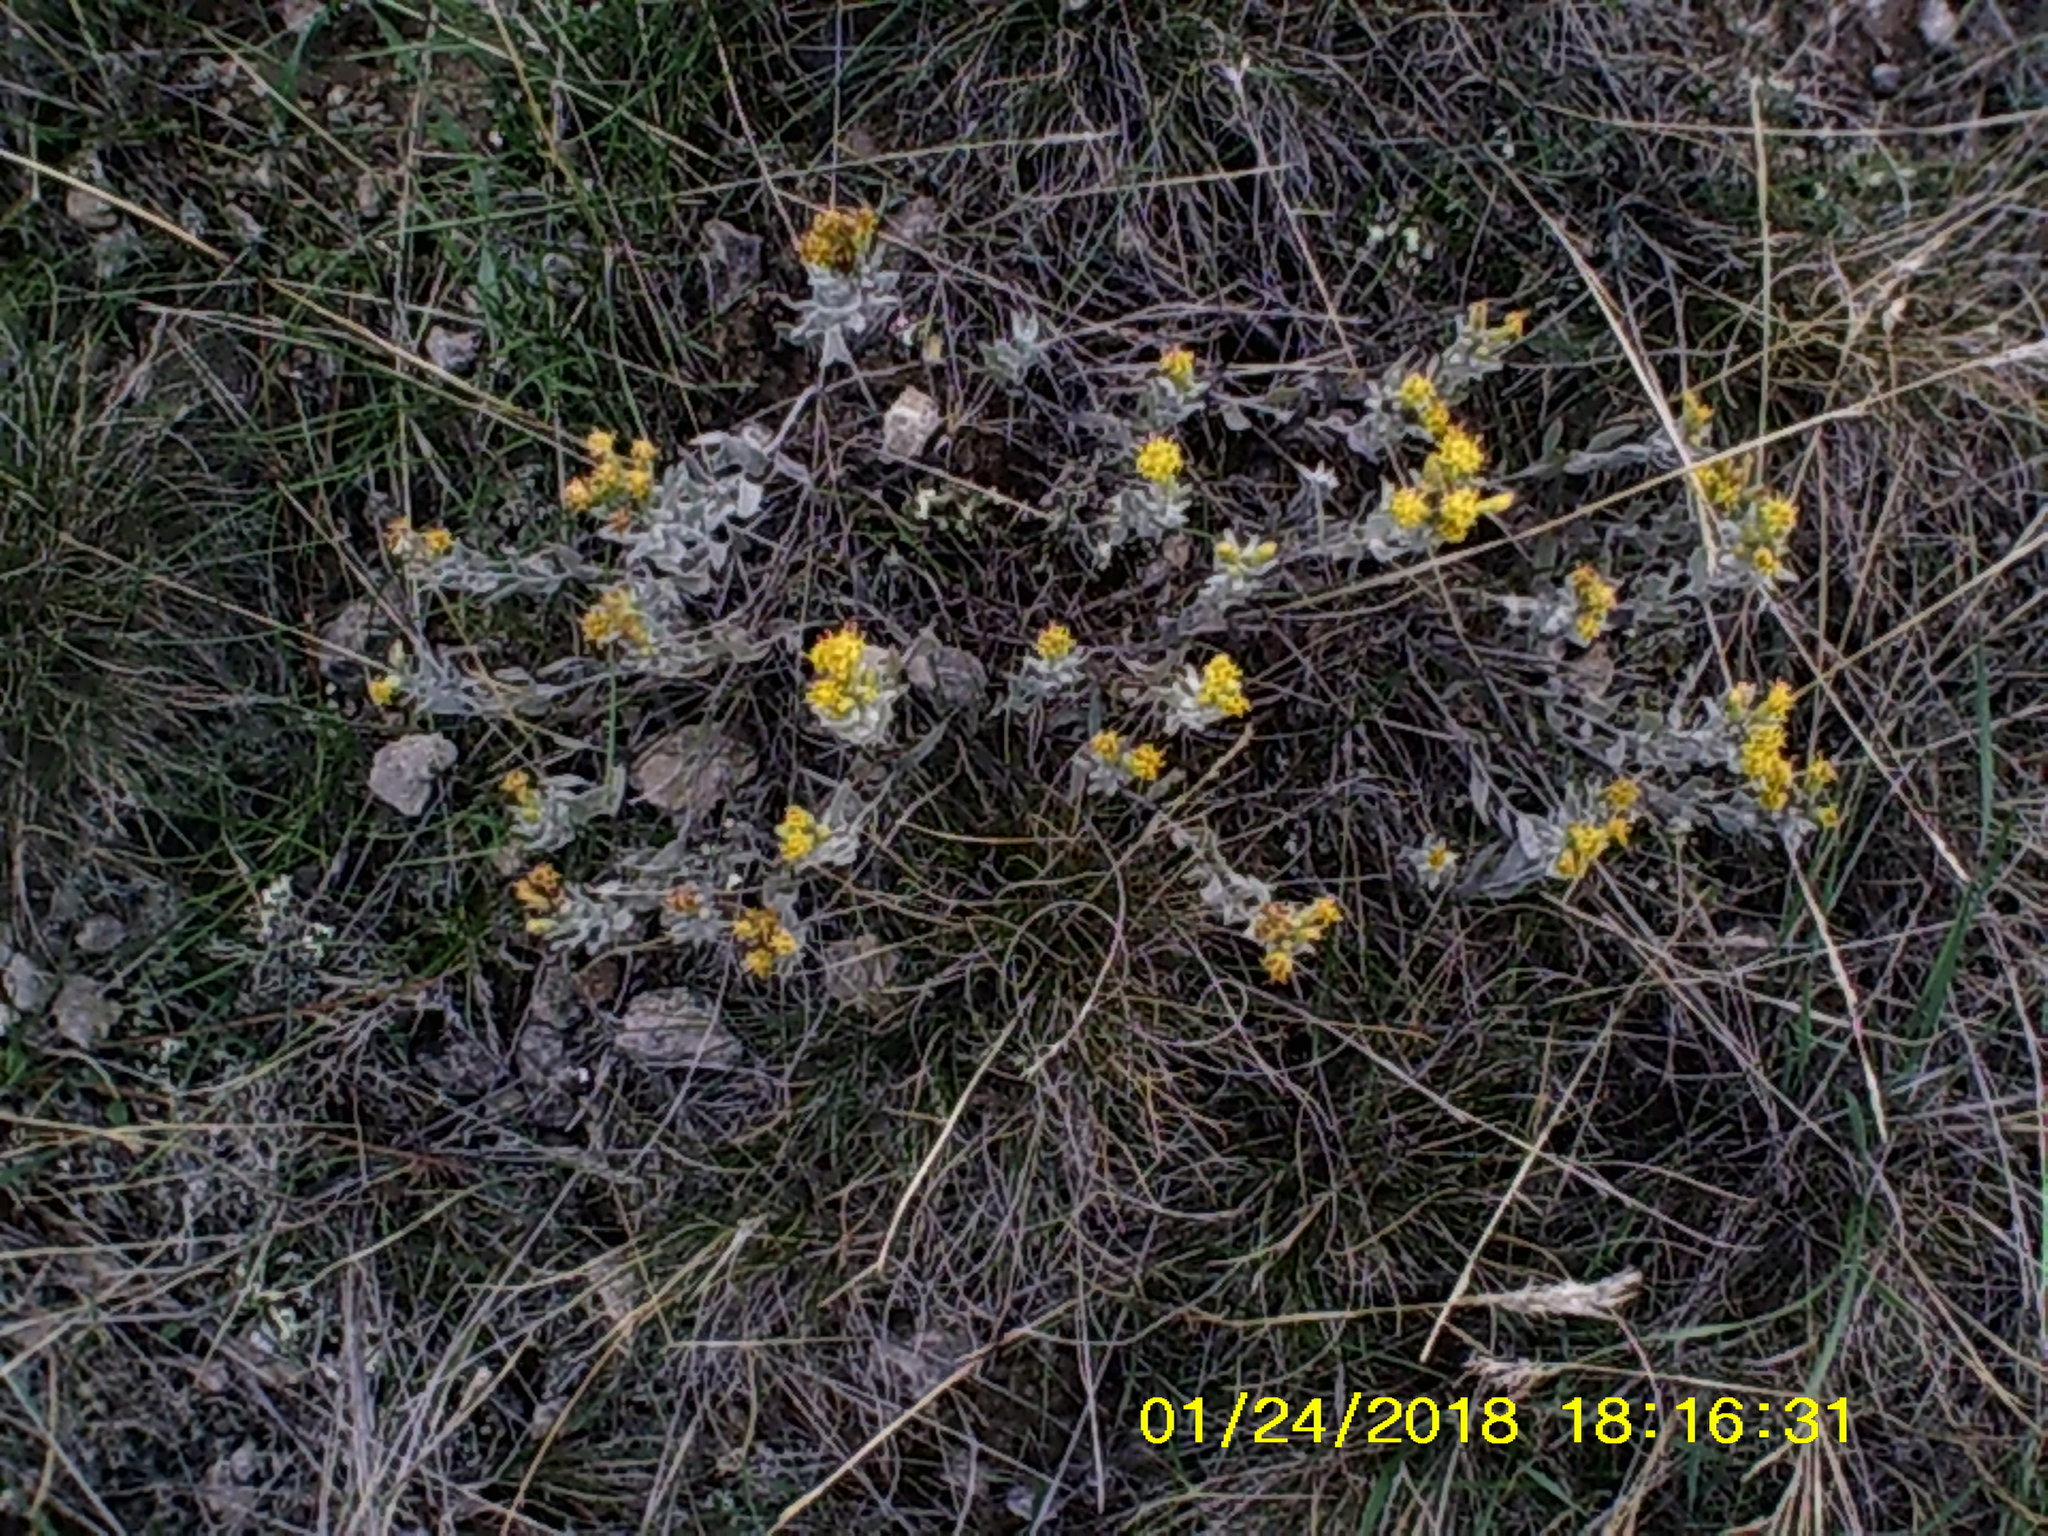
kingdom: Plantae
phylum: Tracheophyta
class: Magnoliopsida
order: Asterales
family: Asteraceae
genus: Galatella
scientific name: Galatella villosa
